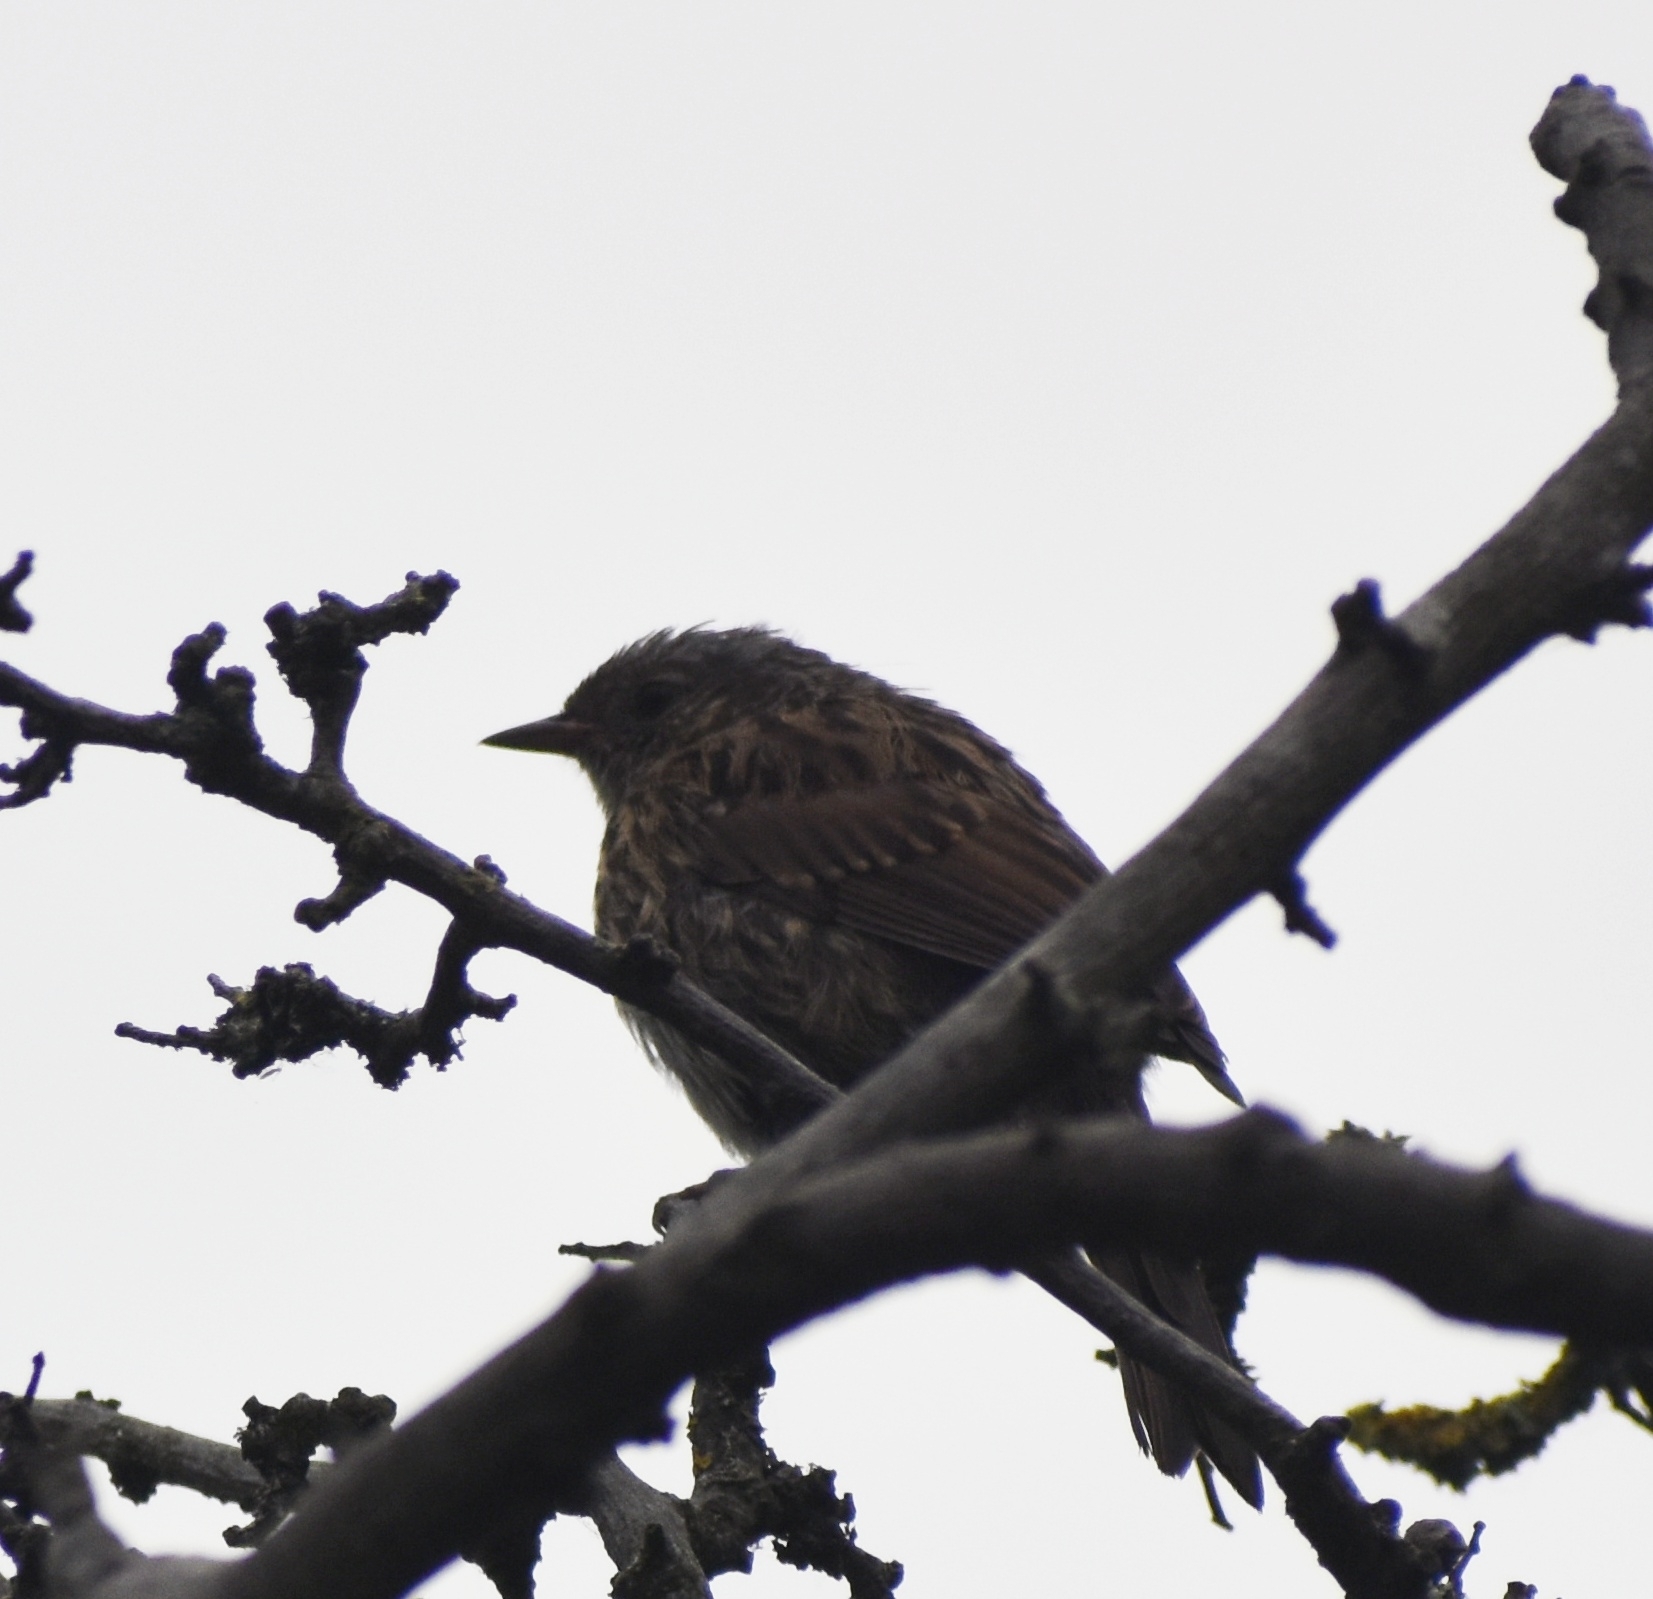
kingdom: Animalia
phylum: Chordata
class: Aves
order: Passeriformes
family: Prunellidae
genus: Prunella
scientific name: Prunella modularis
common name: Dunnock
